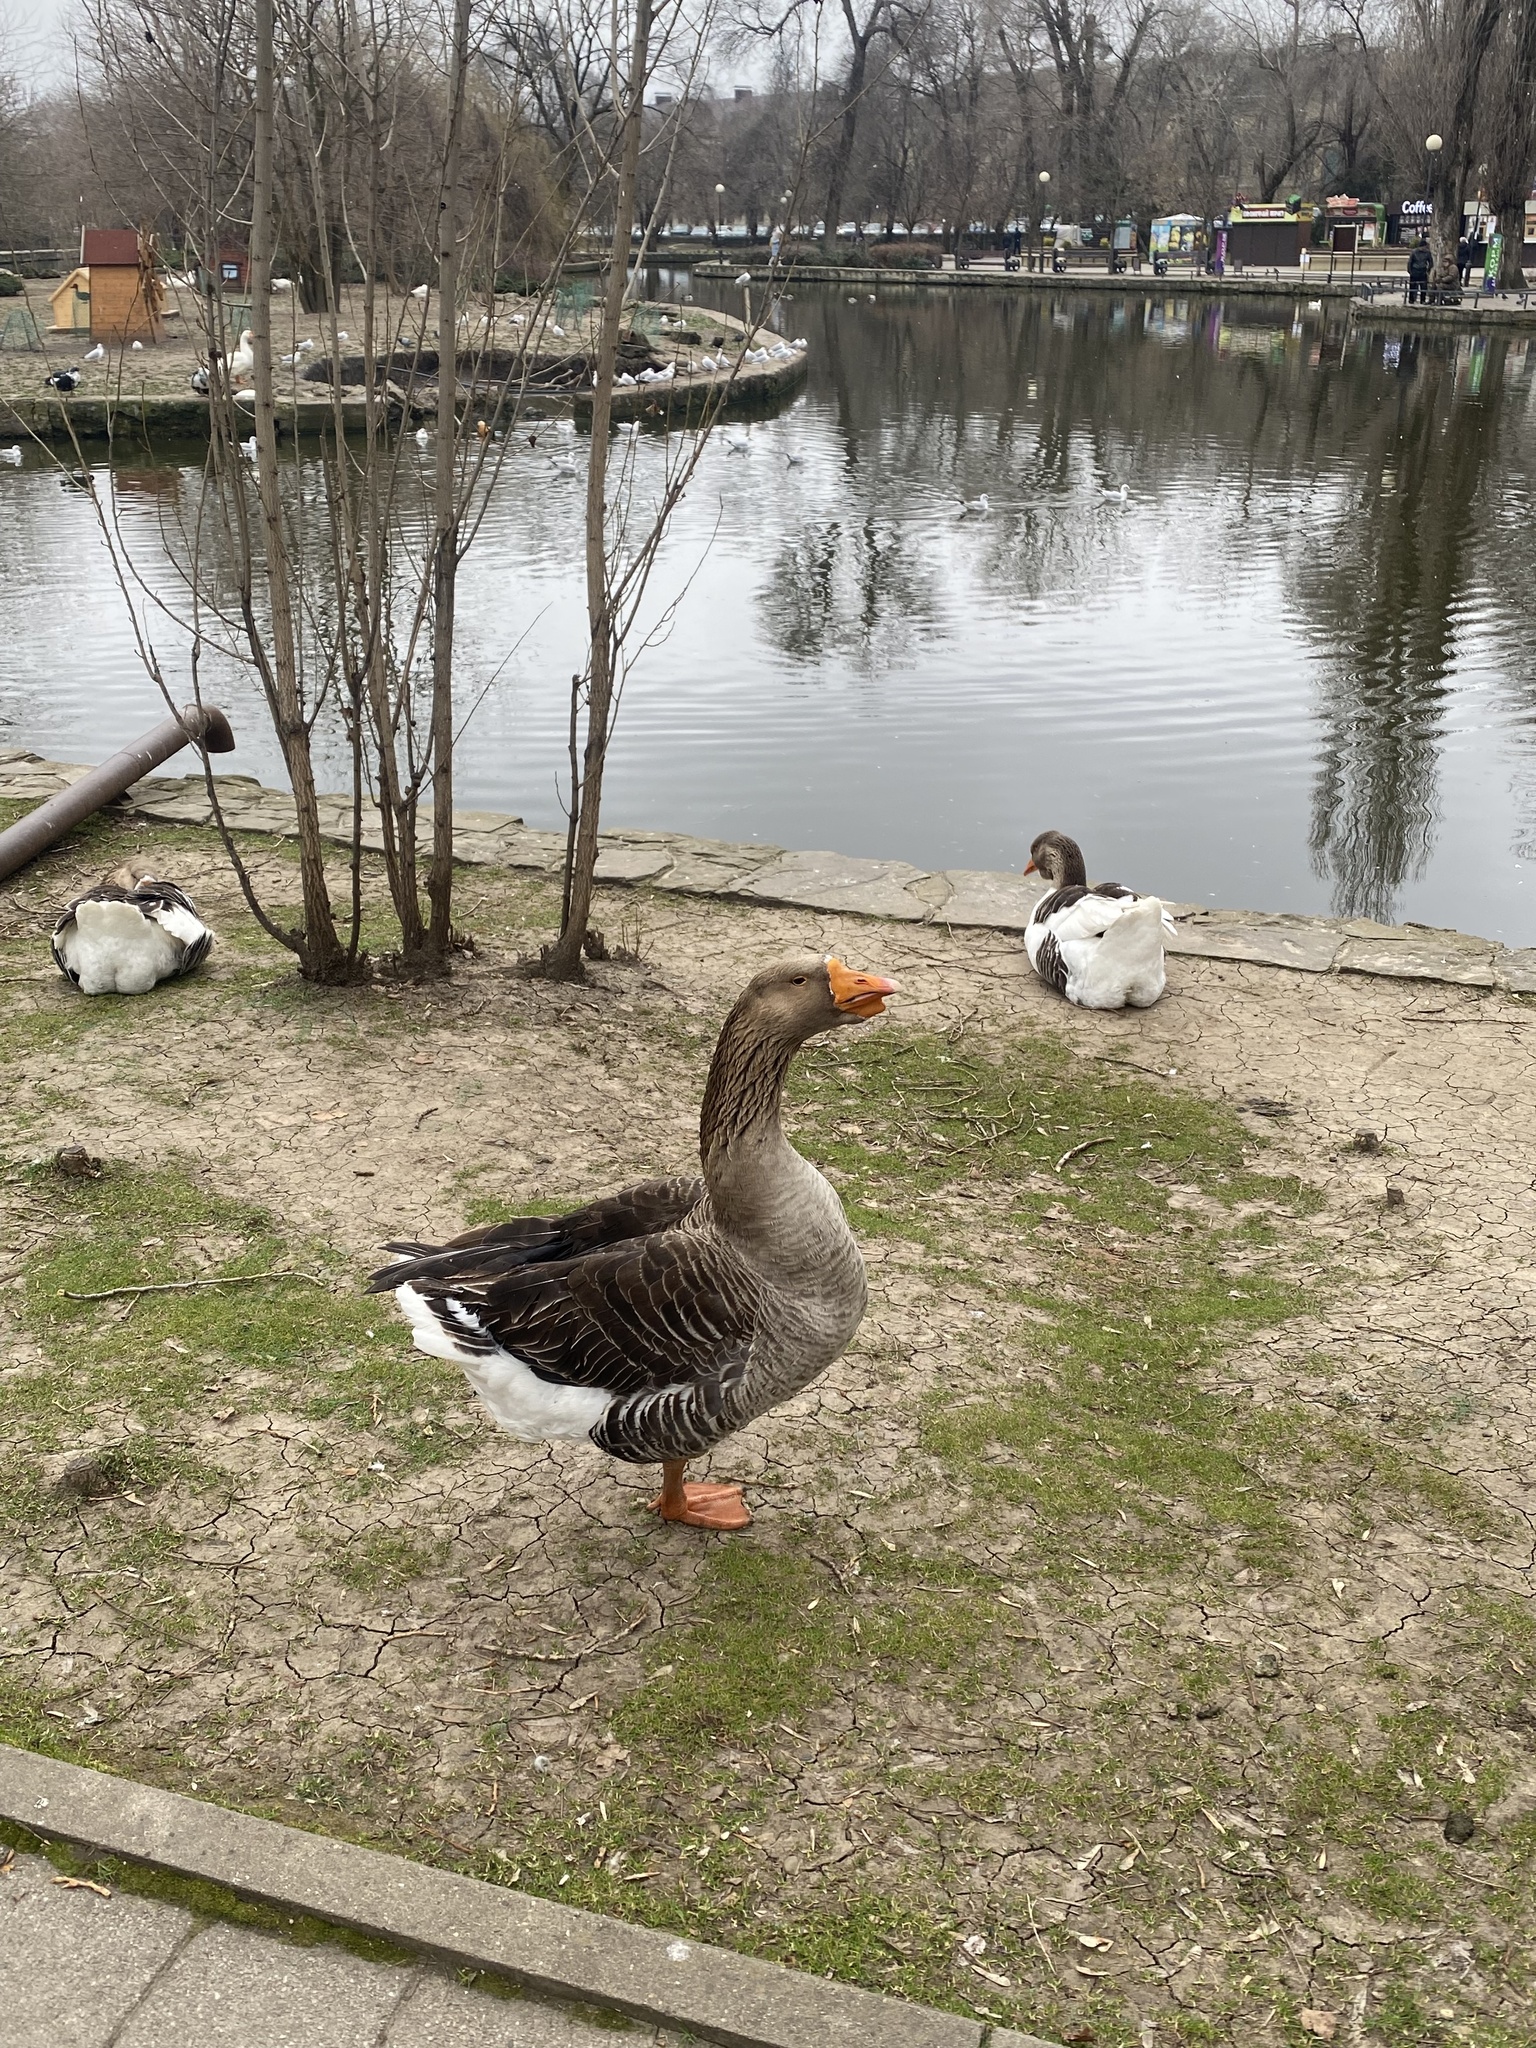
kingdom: Animalia
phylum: Chordata
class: Aves
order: Anseriformes
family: Anatidae
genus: Anser
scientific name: Anser
